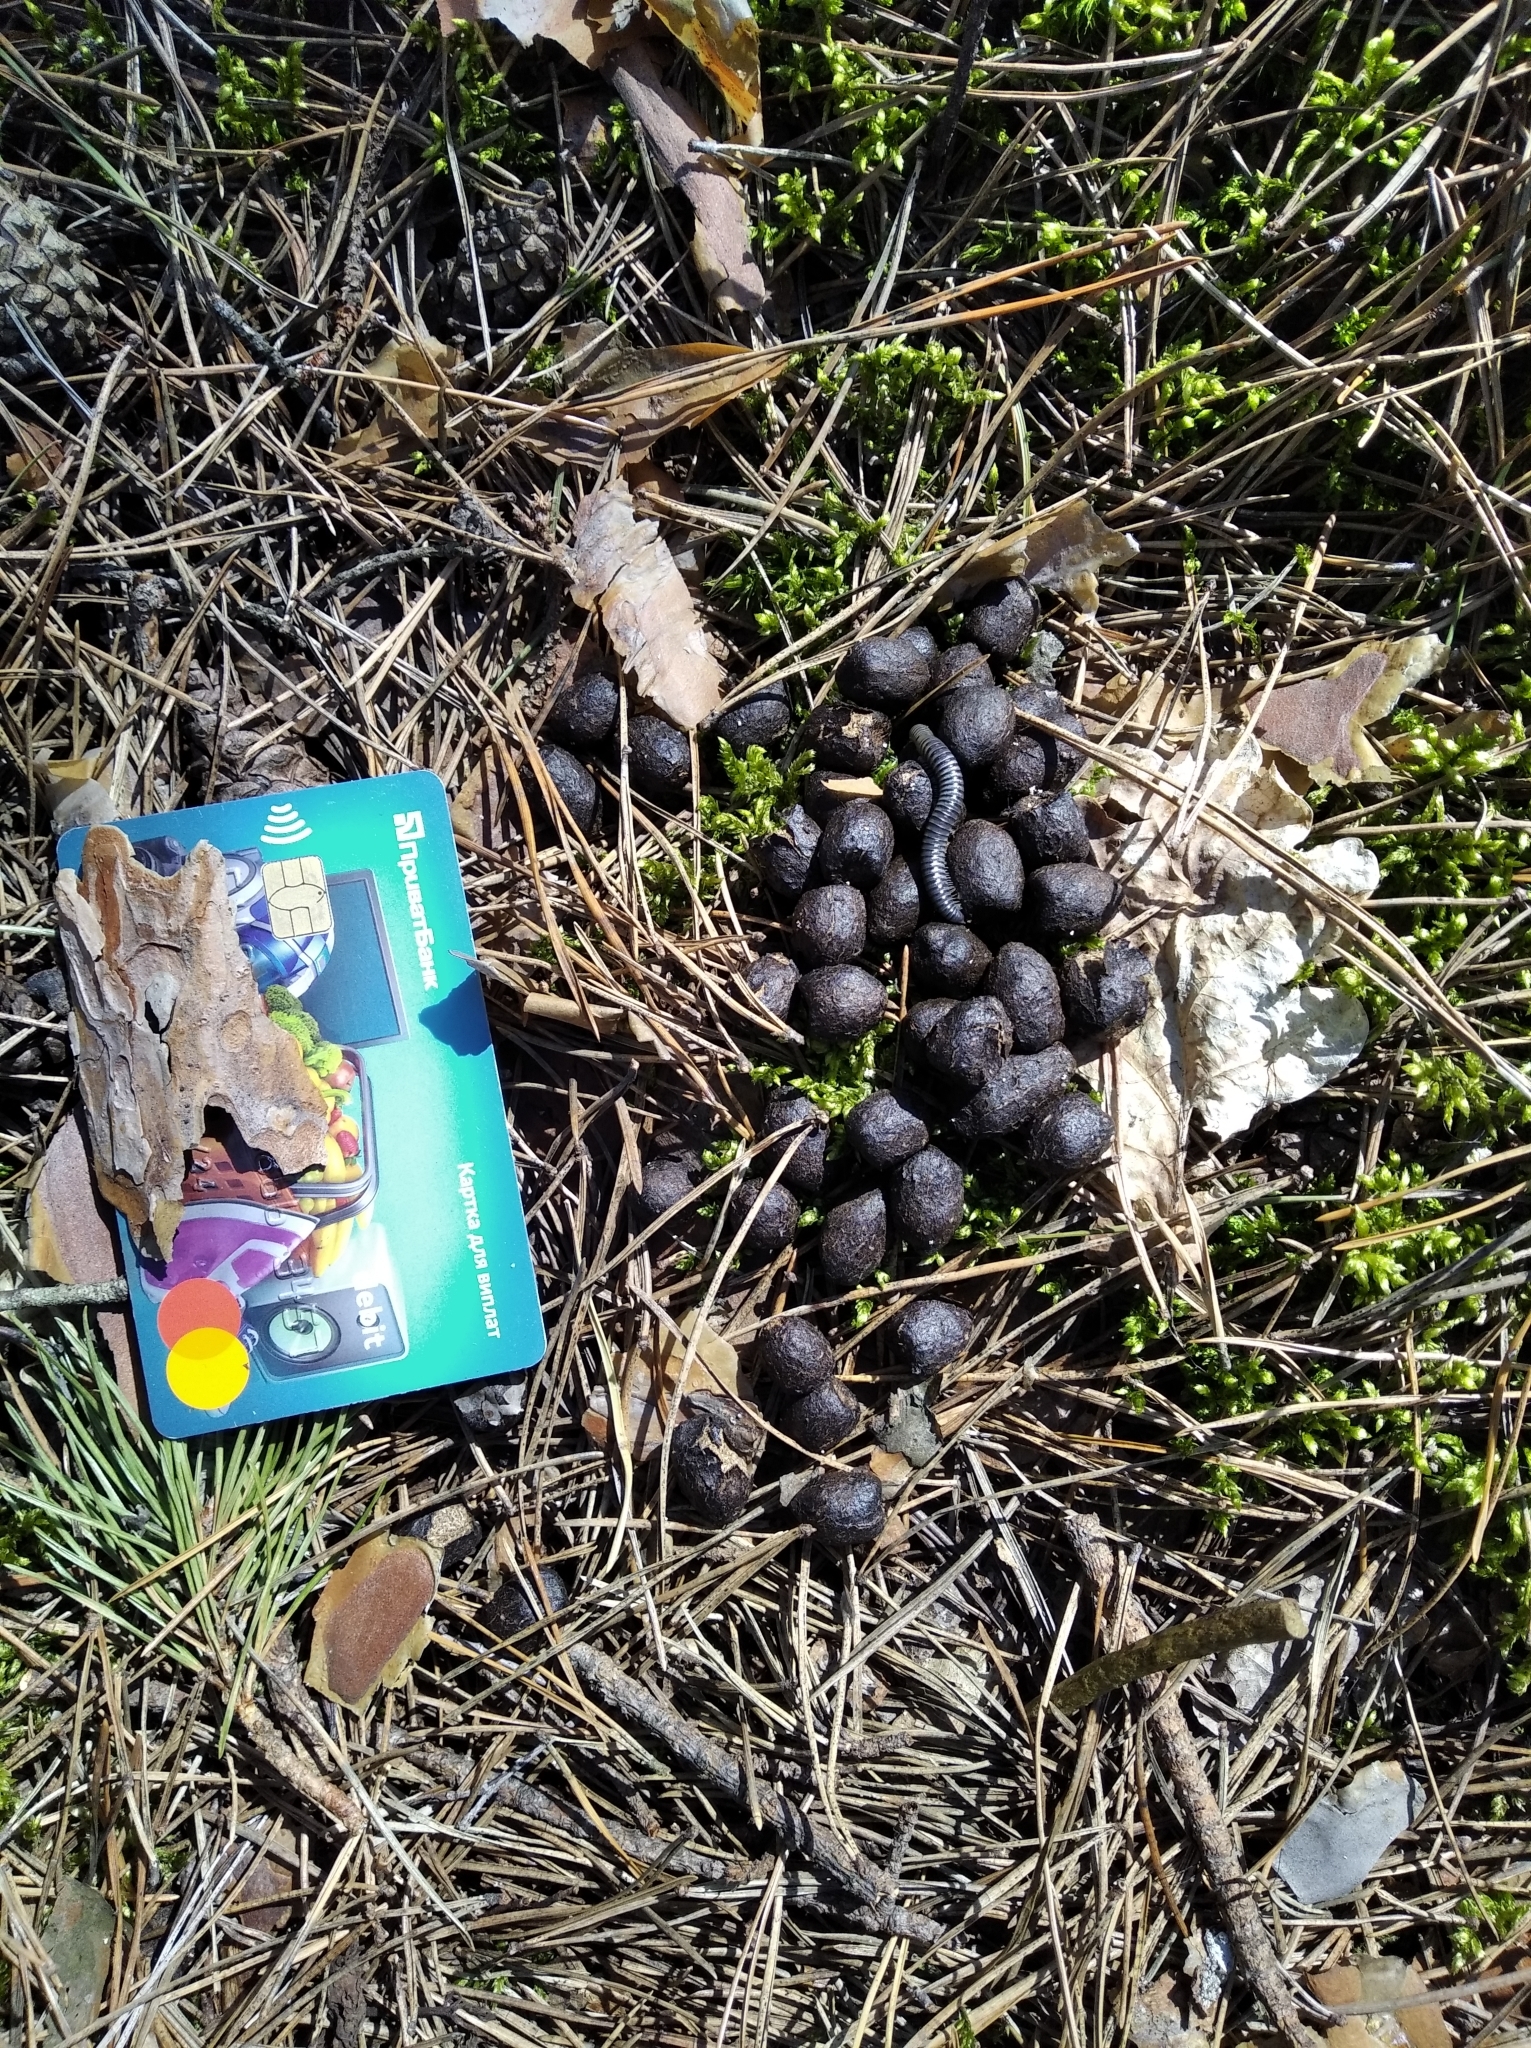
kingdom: Animalia
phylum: Chordata
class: Mammalia
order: Artiodactyla
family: Cervidae
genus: Alces
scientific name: Alces alces
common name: Moose
